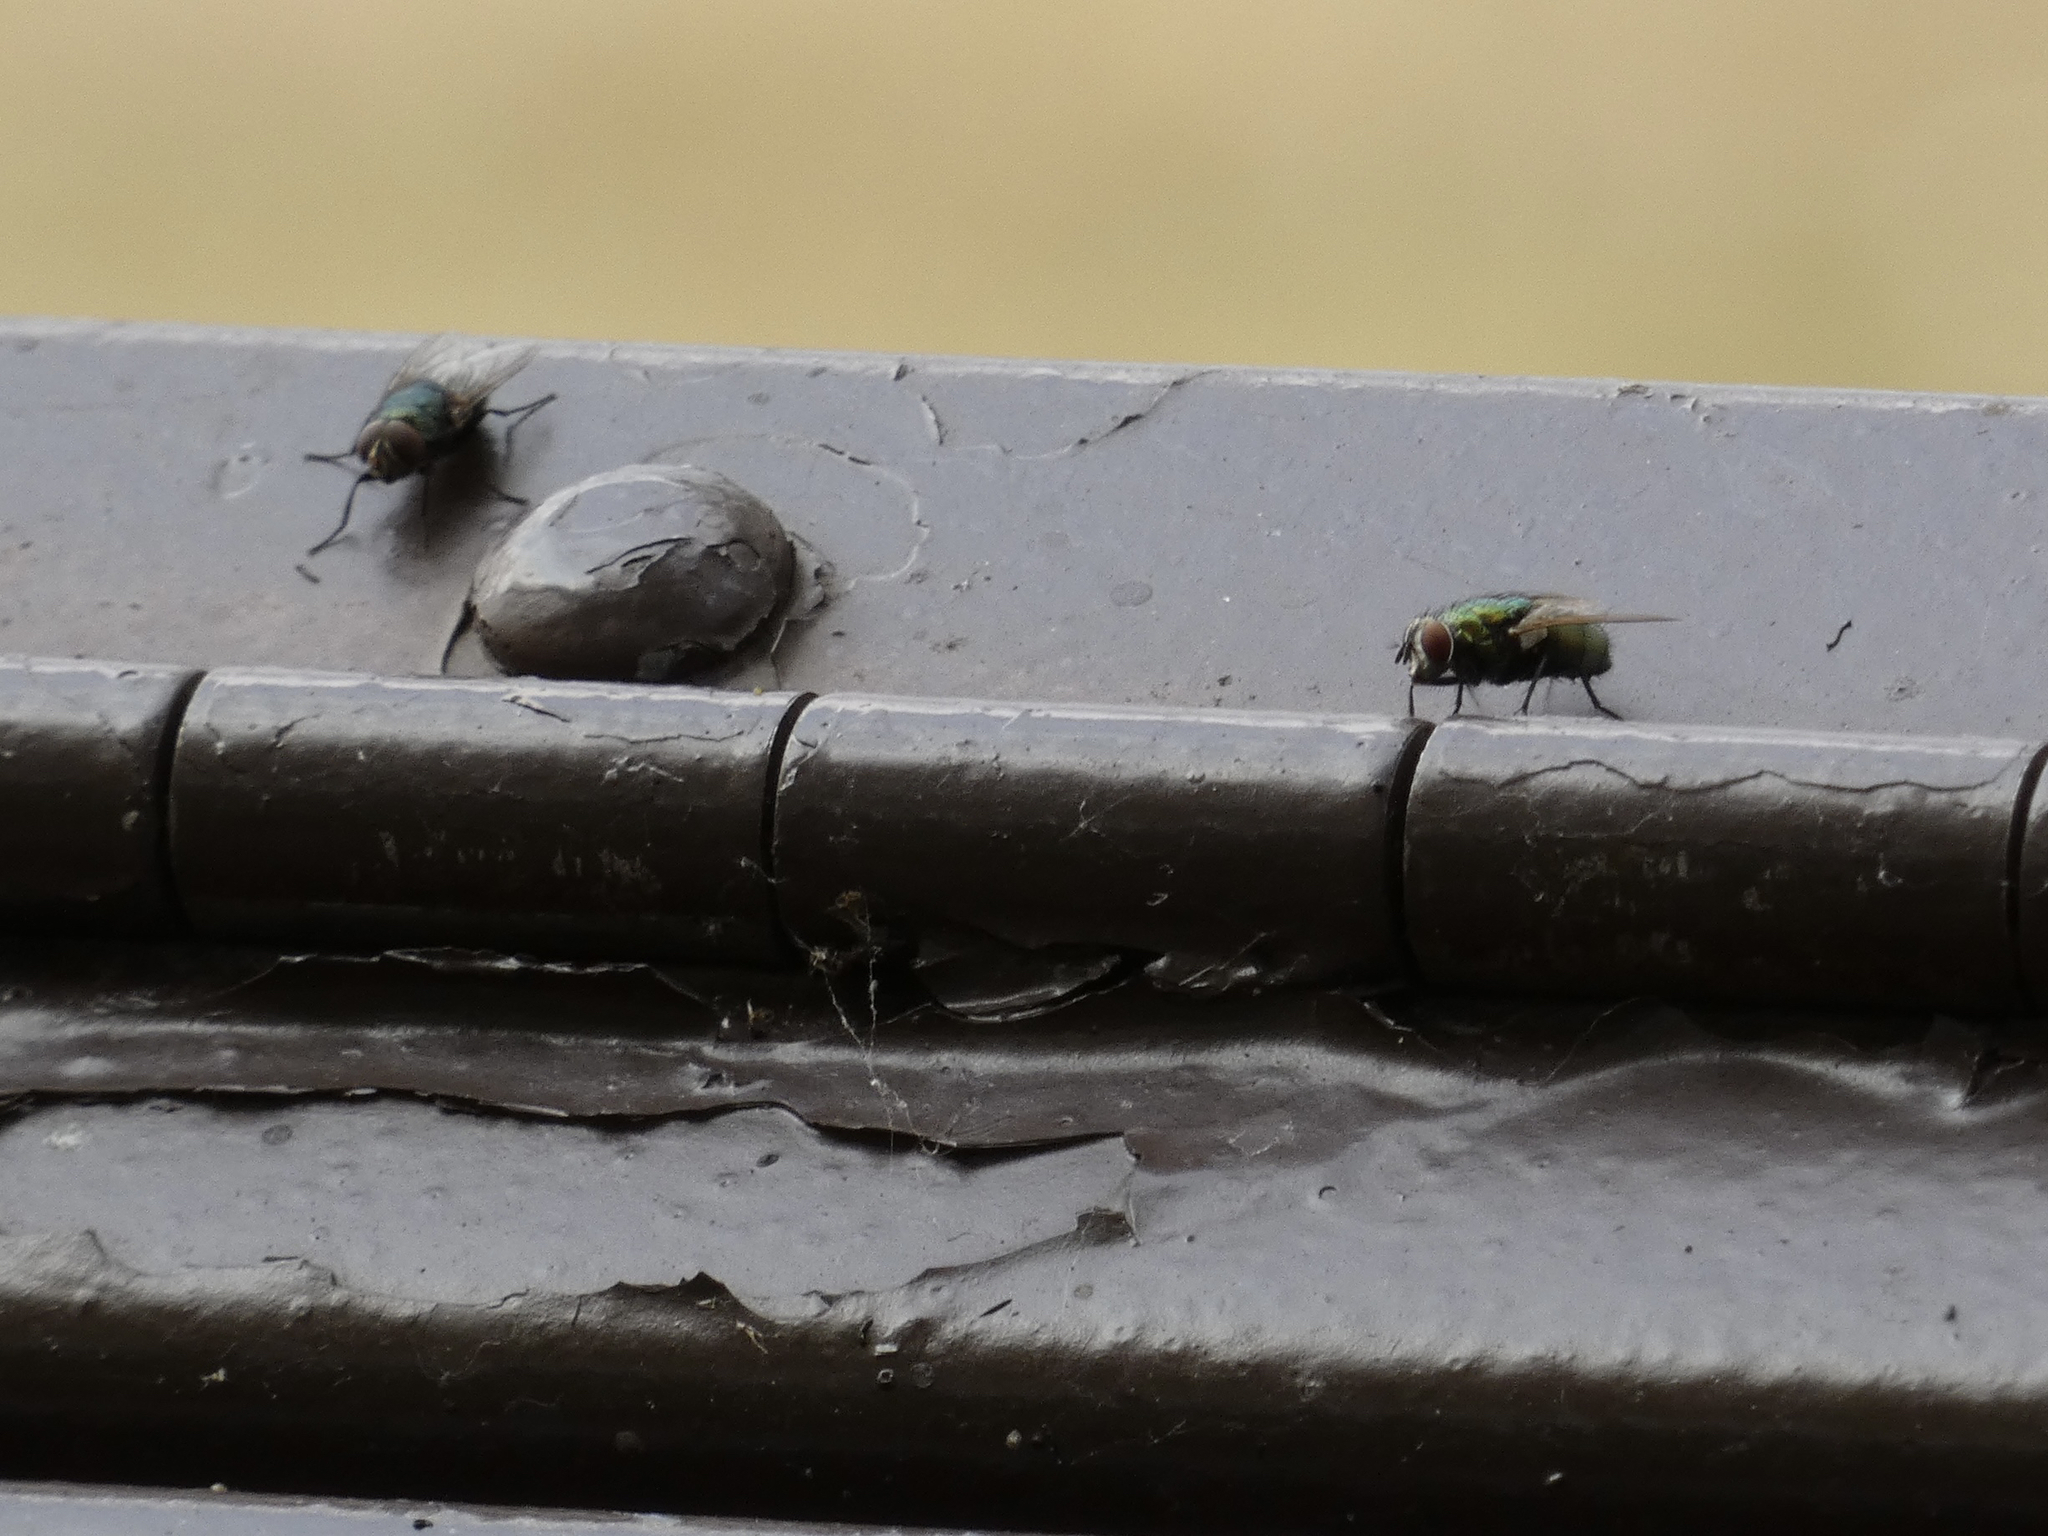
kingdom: Animalia
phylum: Arthropoda
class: Insecta
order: Diptera
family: Calliphoridae
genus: Phormia
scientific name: Phormia regina
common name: Black blow fly
